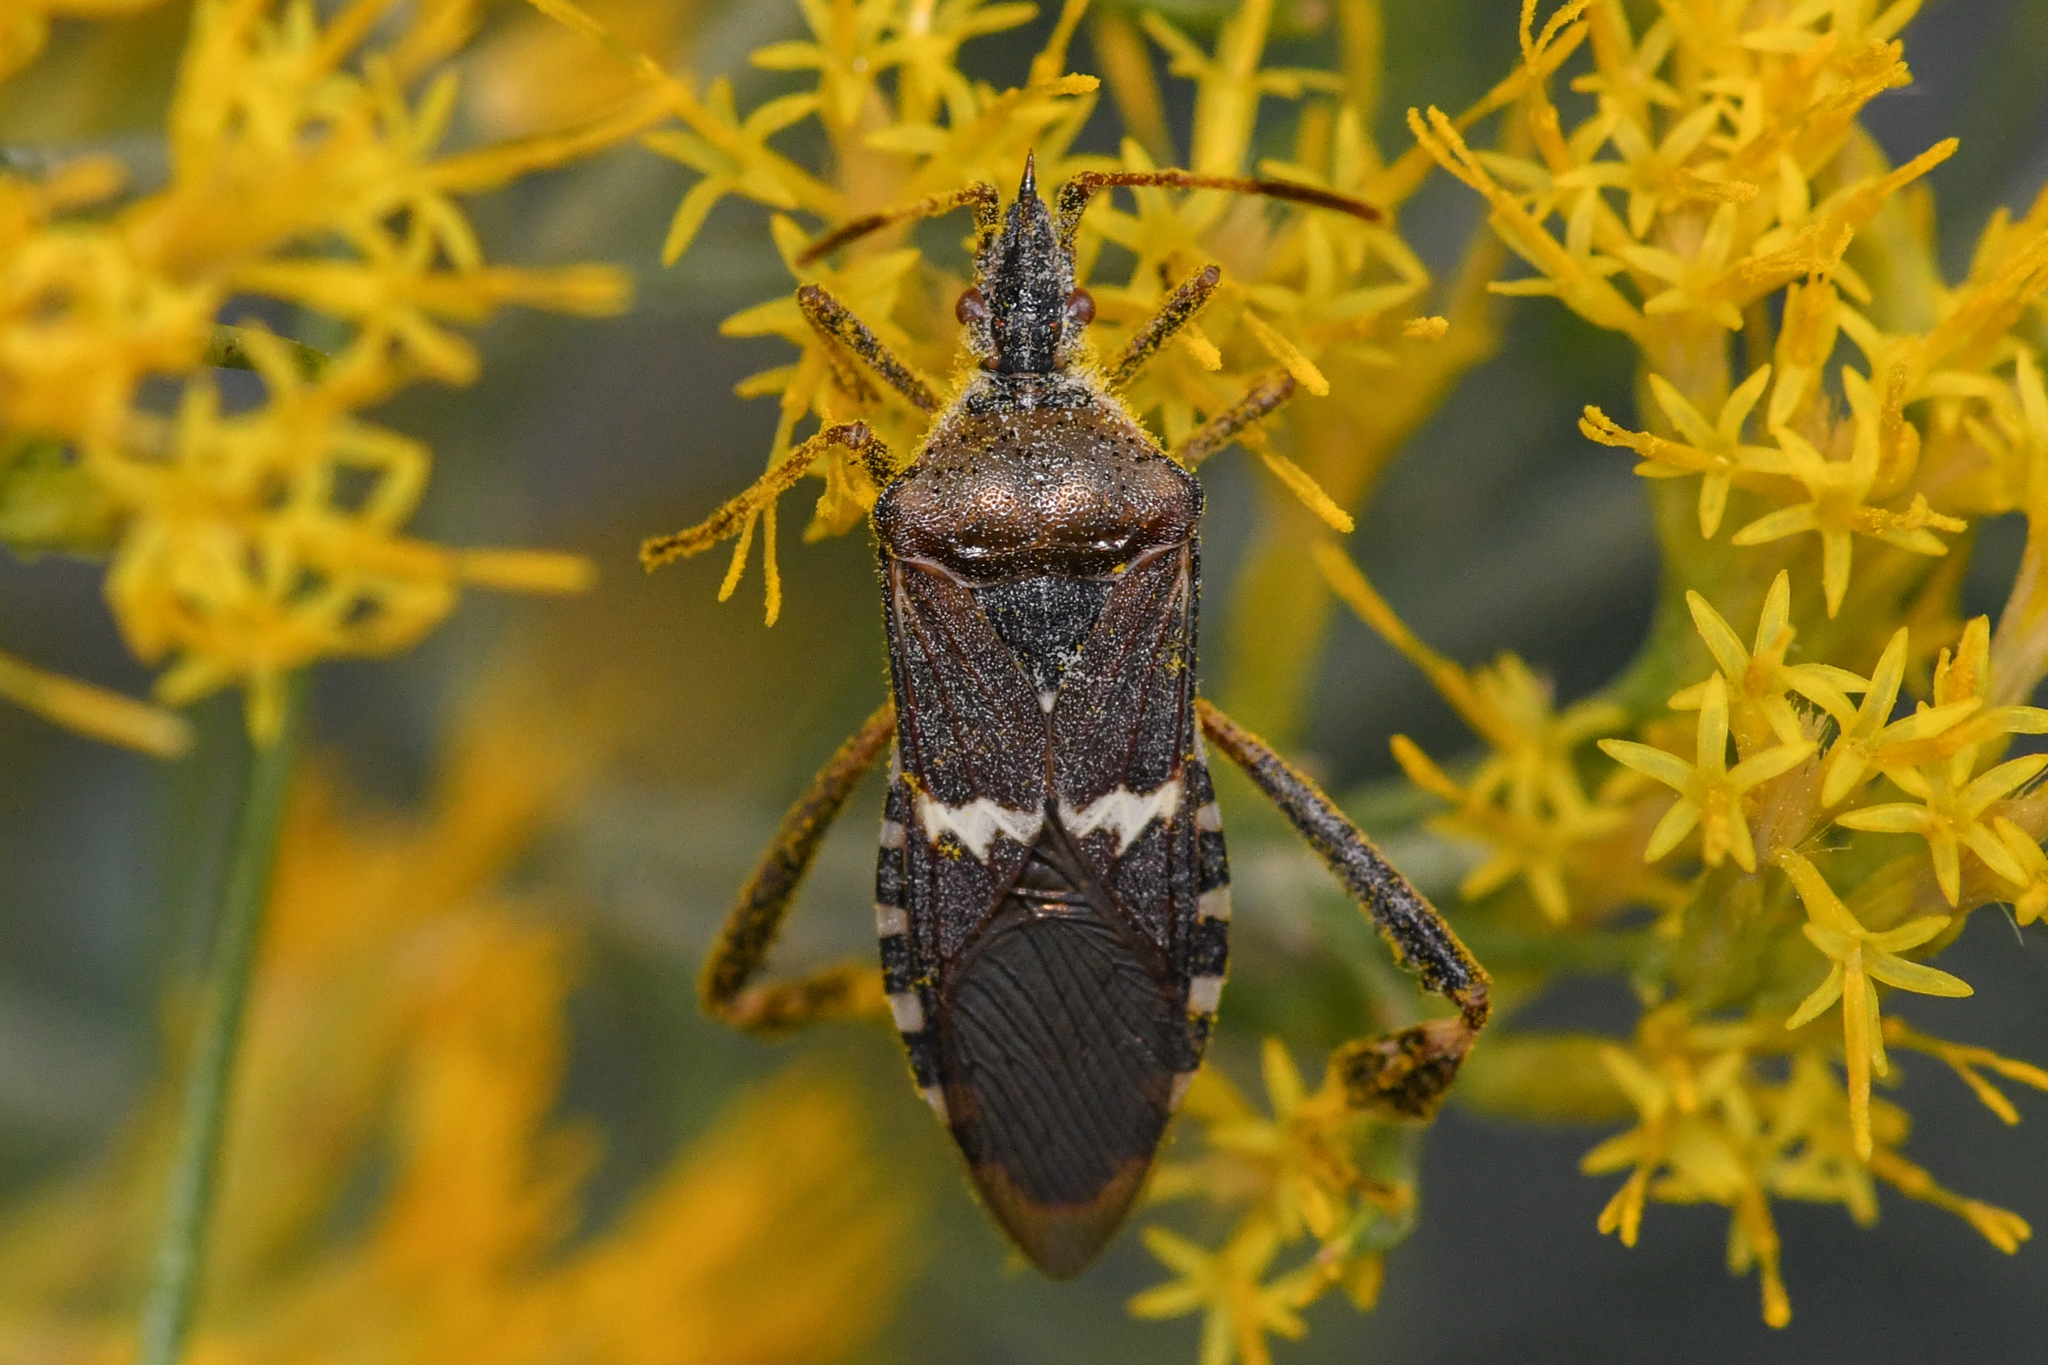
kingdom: Animalia
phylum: Arthropoda
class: Insecta
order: Hemiptera
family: Coreidae
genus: Leptoglossus
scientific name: Leptoglossus clypealis
